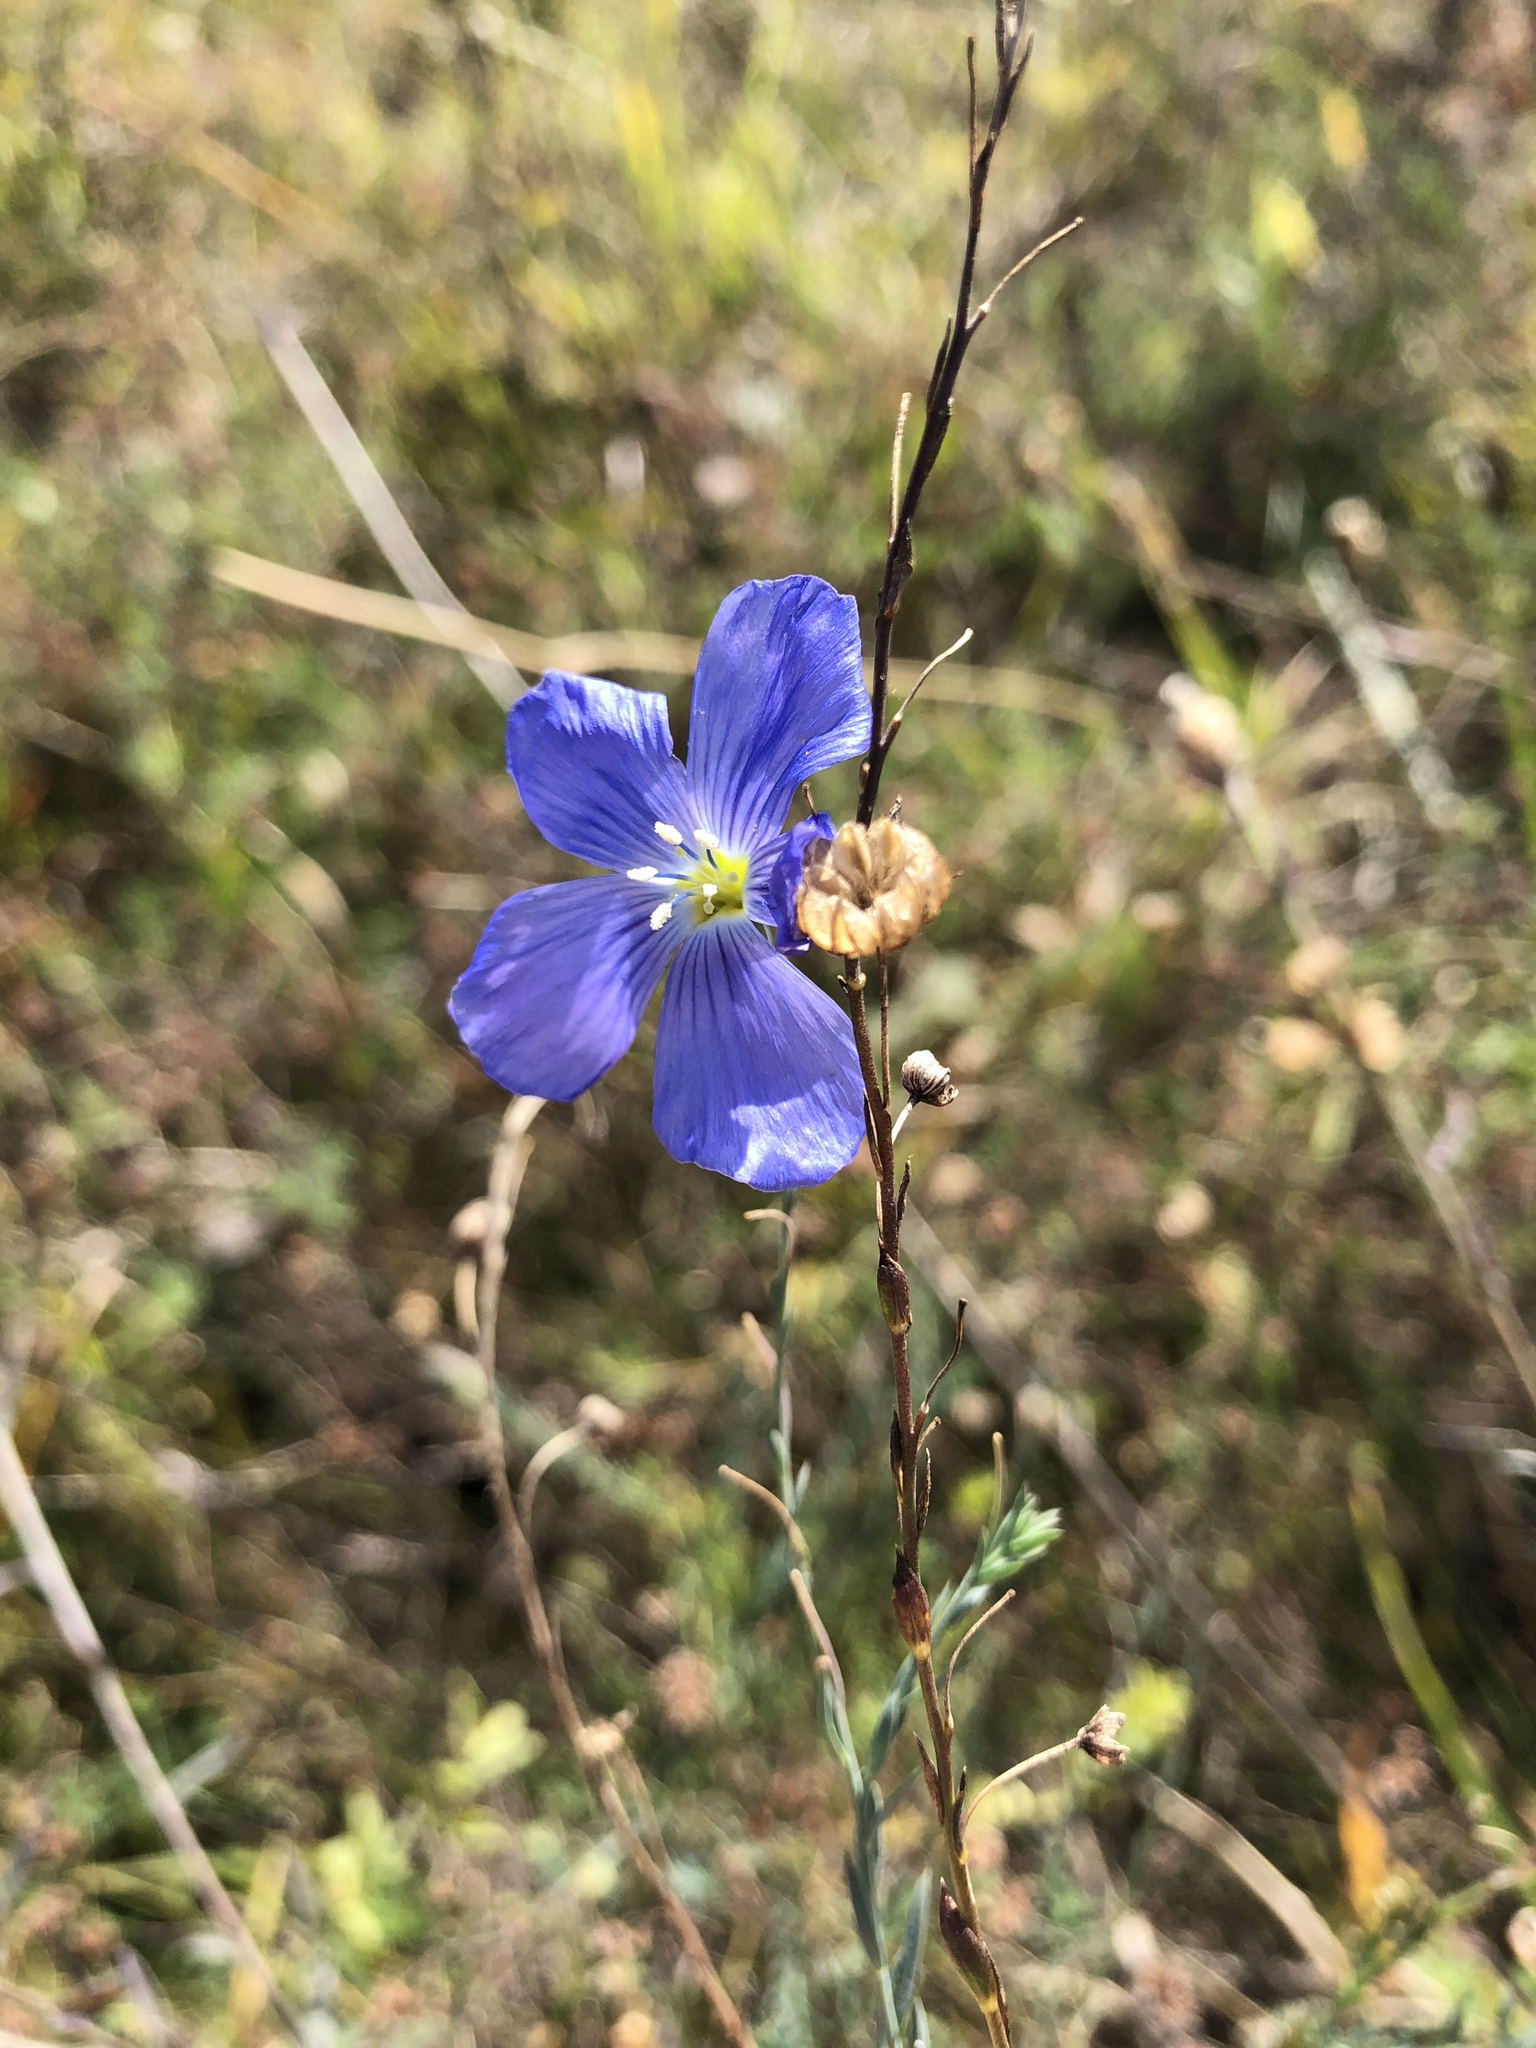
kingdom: Plantae
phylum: Tracheophyta
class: Magnoliopsida
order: Malpighiales
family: Linaceae
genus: Linum
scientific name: Linum usitatissimum
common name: Flax
